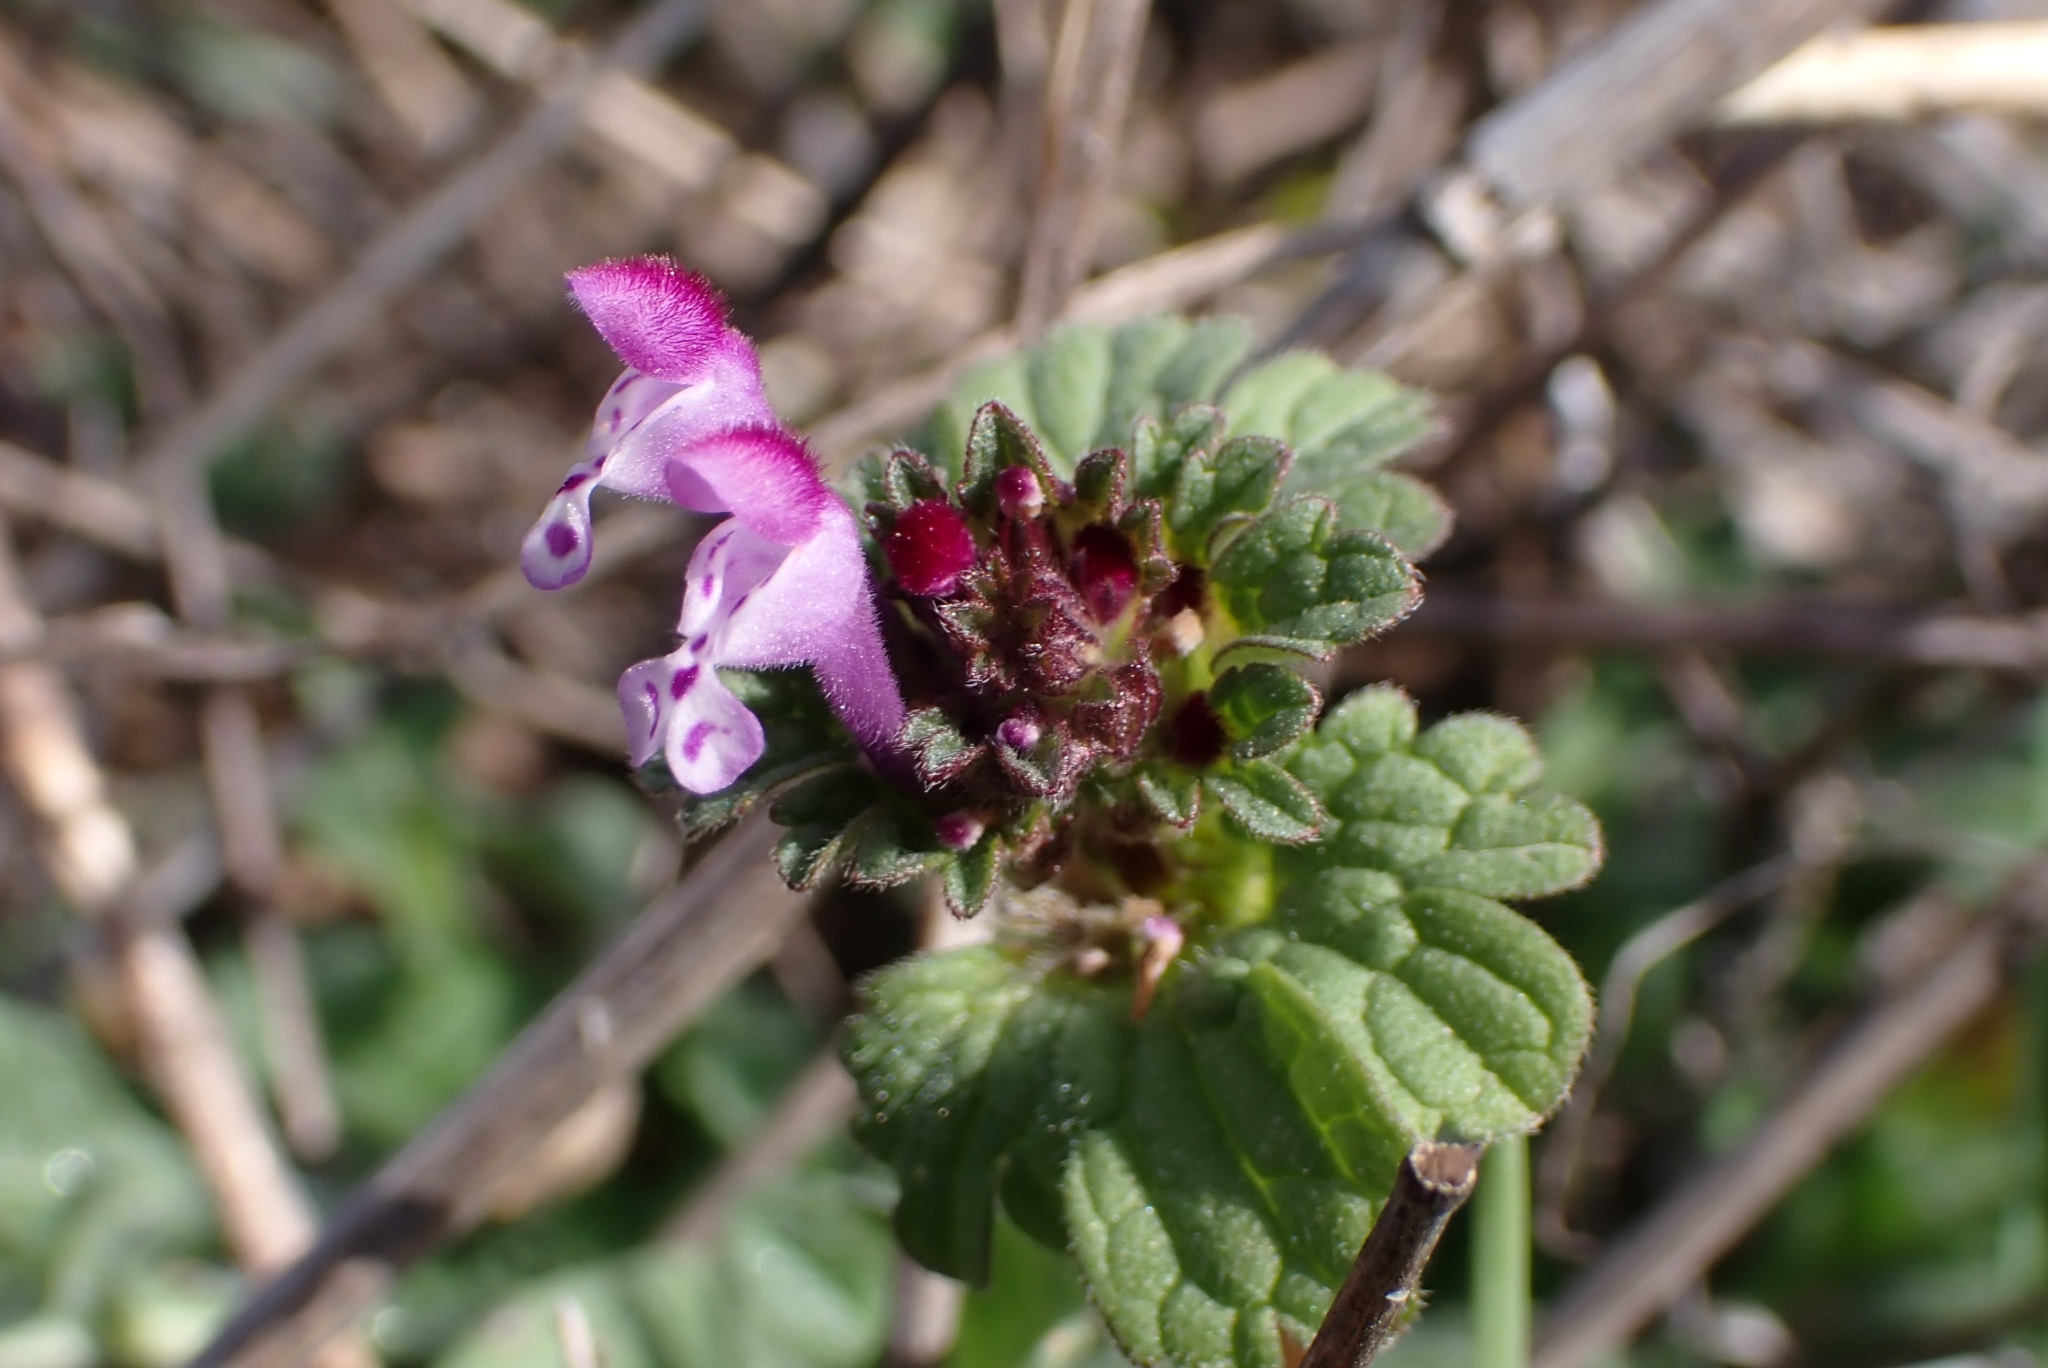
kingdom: Plantae
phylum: Tracheophyta
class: Magnoliopsida
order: Lamiales
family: Lamiaceae
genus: Lamium
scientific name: Lamium amplexicaule
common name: Henbit dead-nettle
